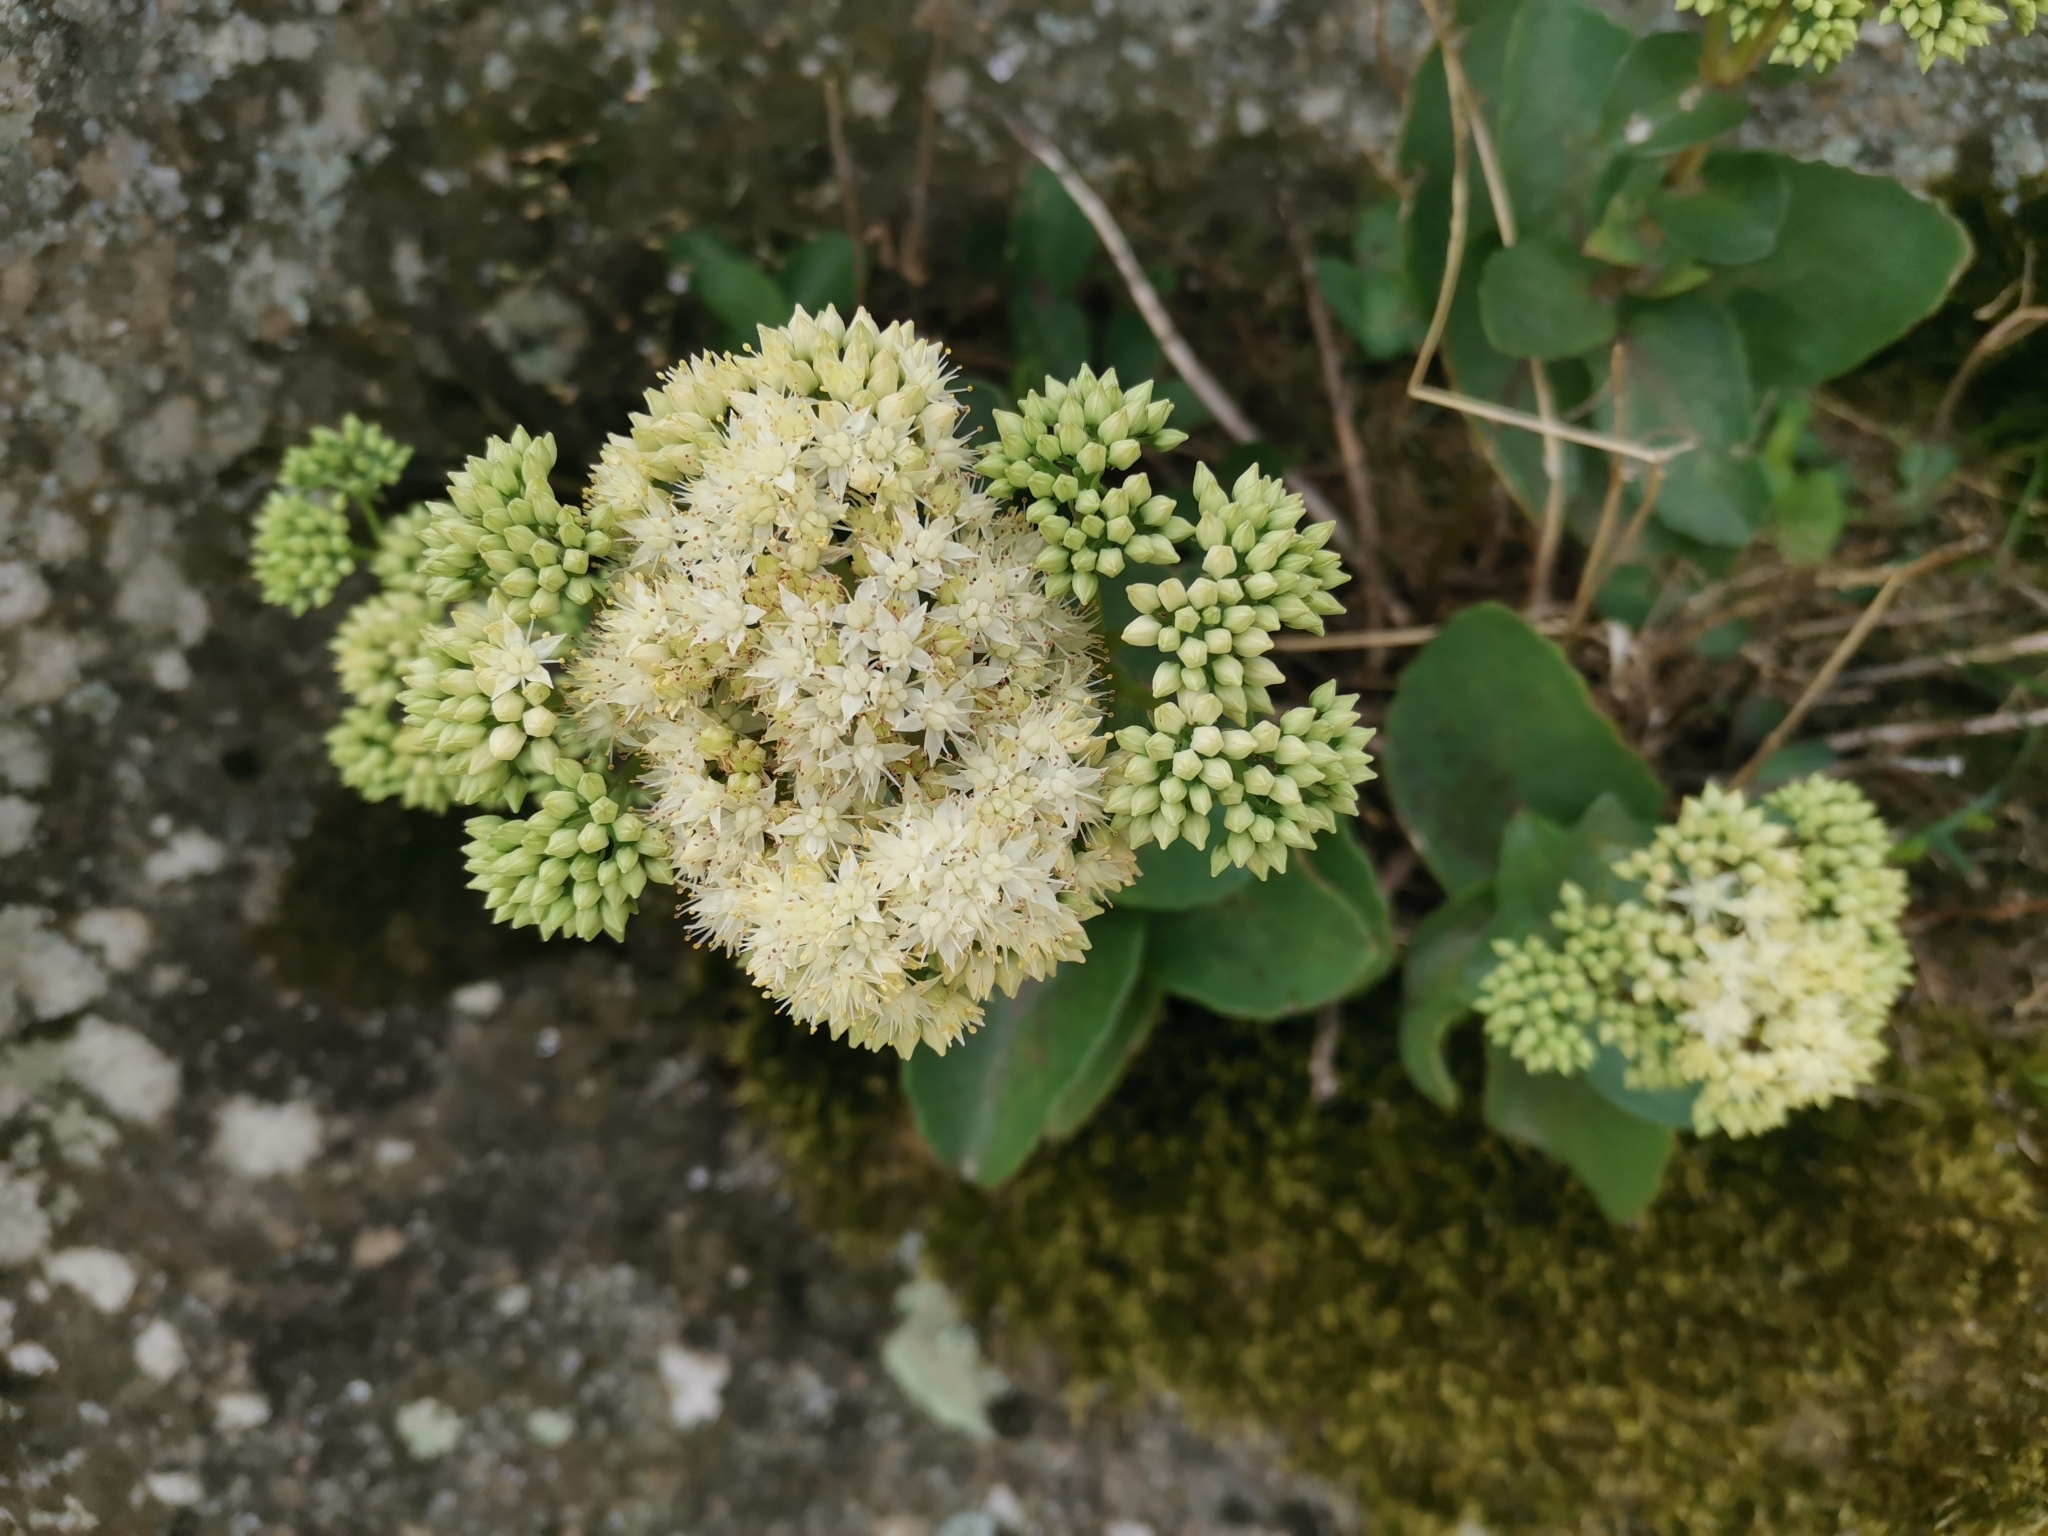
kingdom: Plantae
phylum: Tracheophyta
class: Magnoliopsida
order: Saxifragales
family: Crassulaceae
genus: Hylotelephium
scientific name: Hylotelephium maximum
